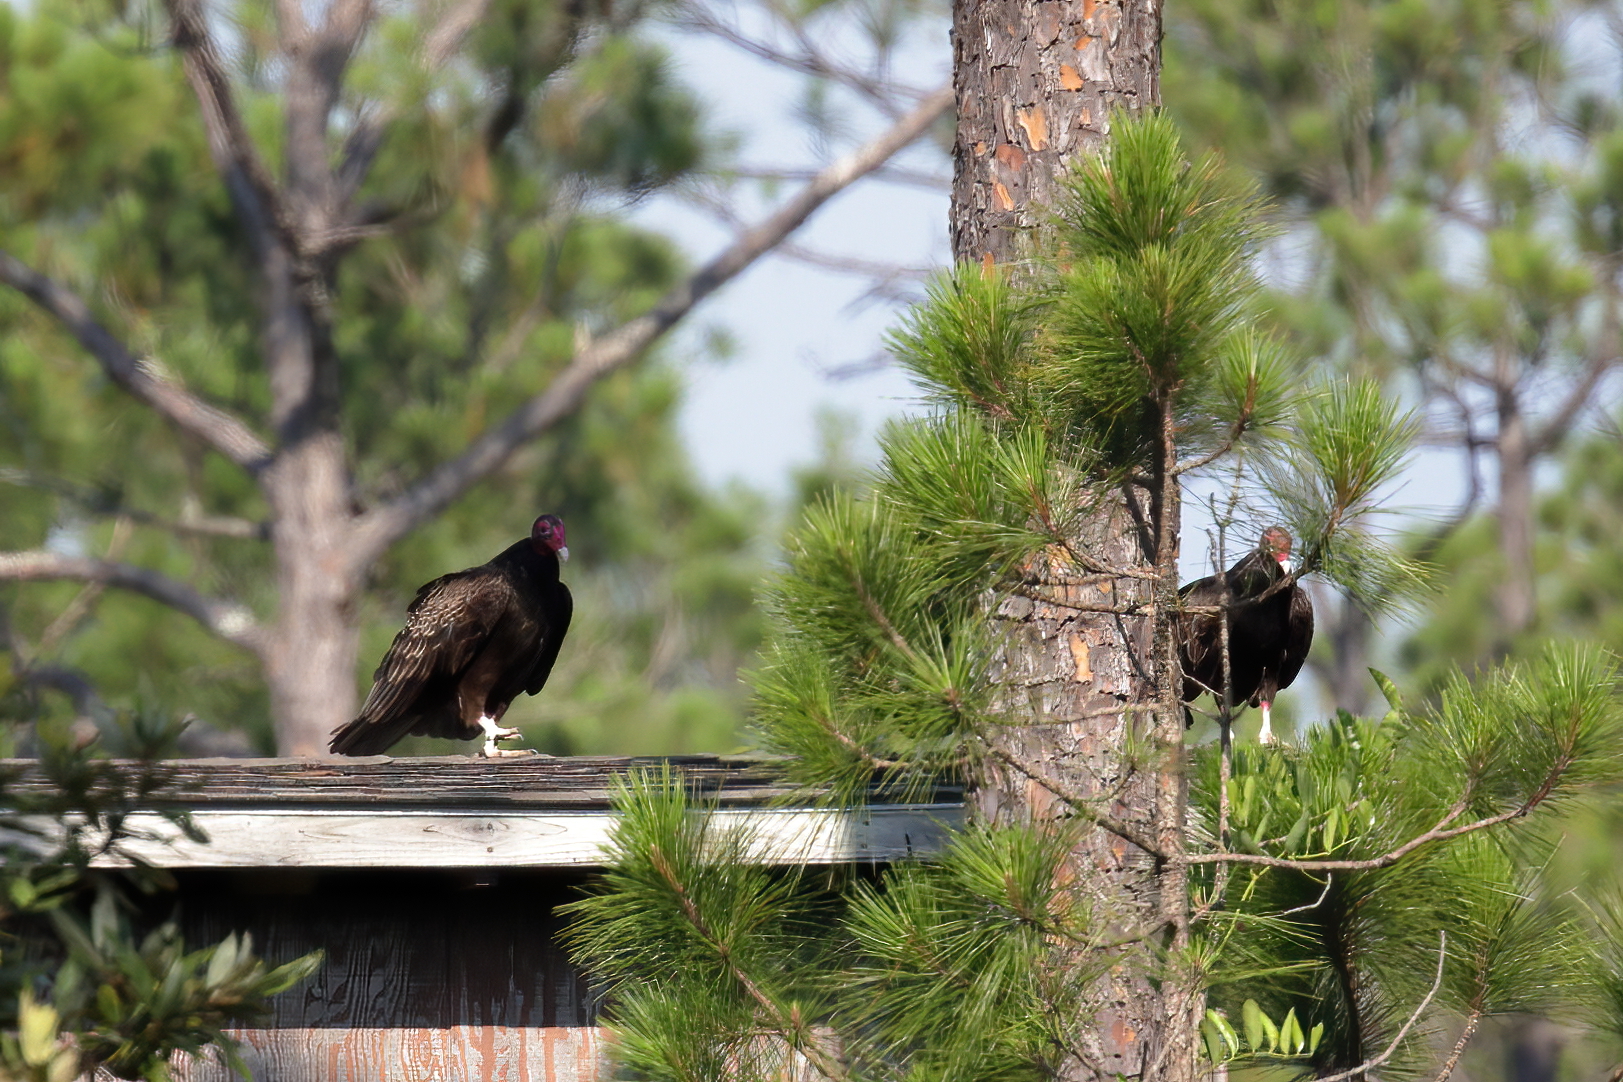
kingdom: Animalia
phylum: Chordata
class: Aves
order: Accipitriformes
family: Cathartidae
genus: Cathartes
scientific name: Cathartes aura
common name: Turkey vulture
